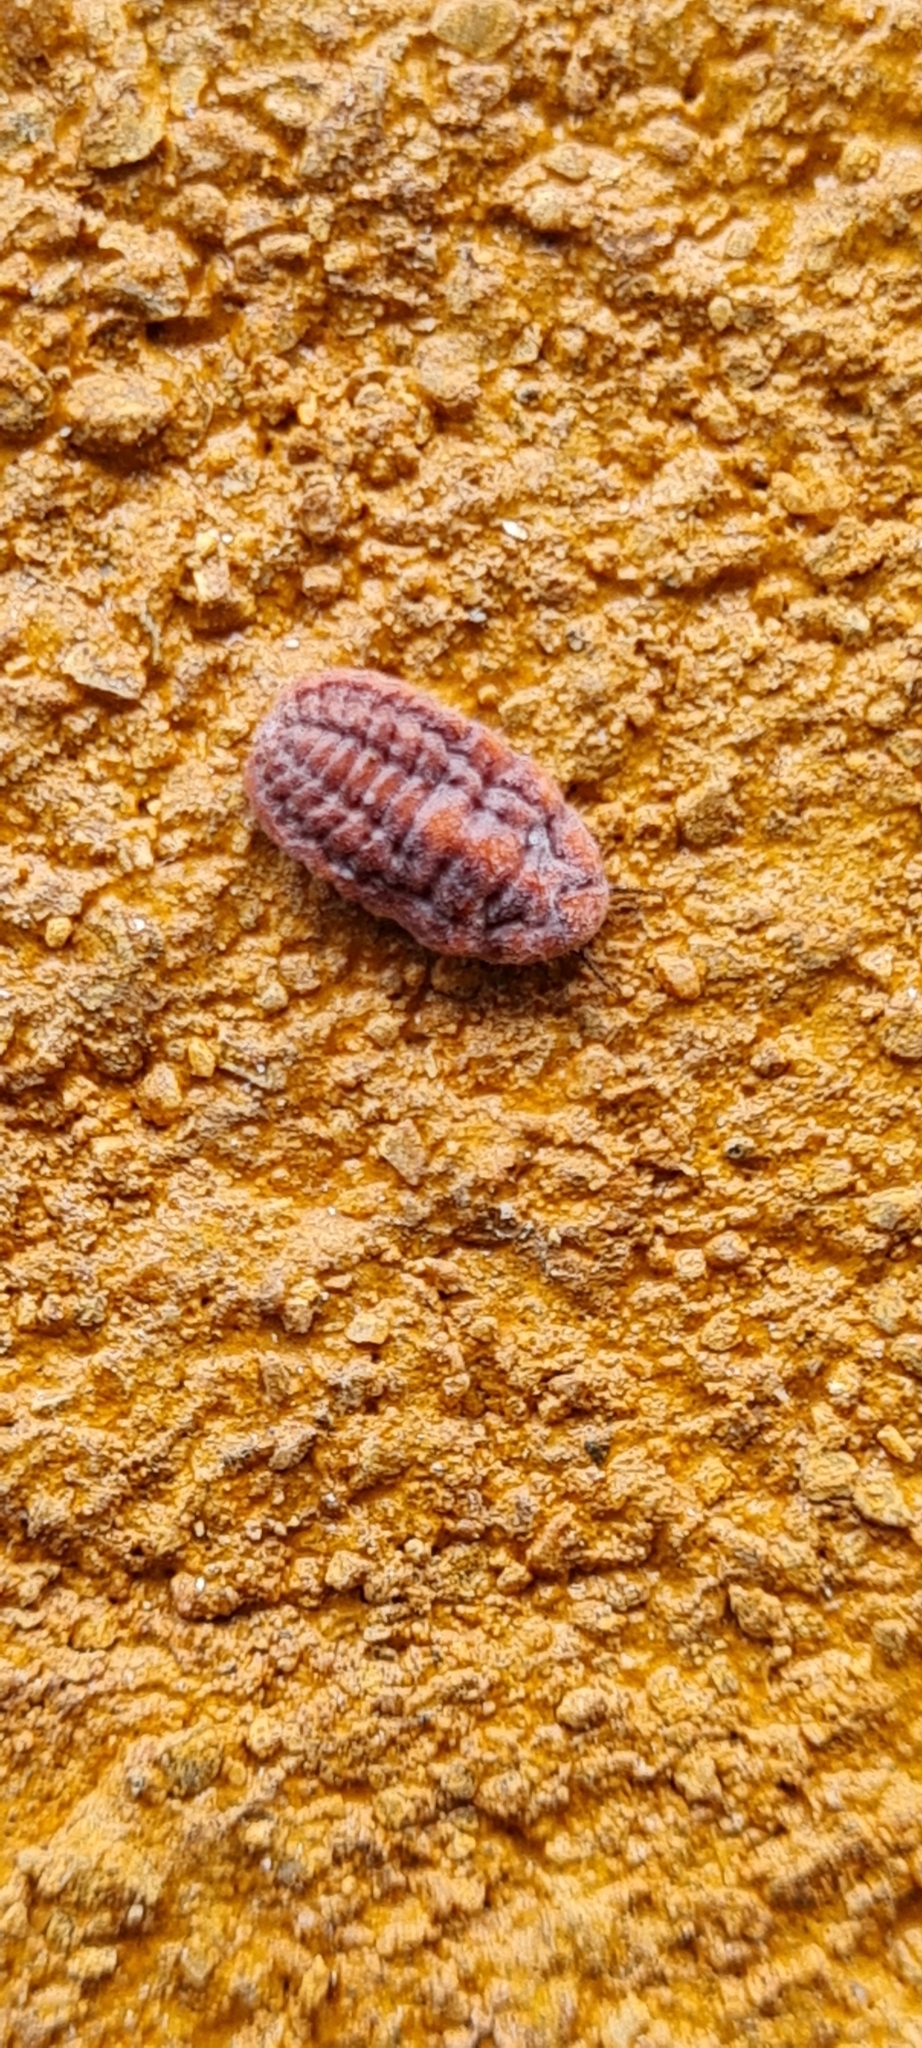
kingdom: Animalia
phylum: Arthropoda
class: Insecta
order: Hemiptera
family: Margarodidae
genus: Palaeococcus
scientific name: Palaeococcus fuscipennis
